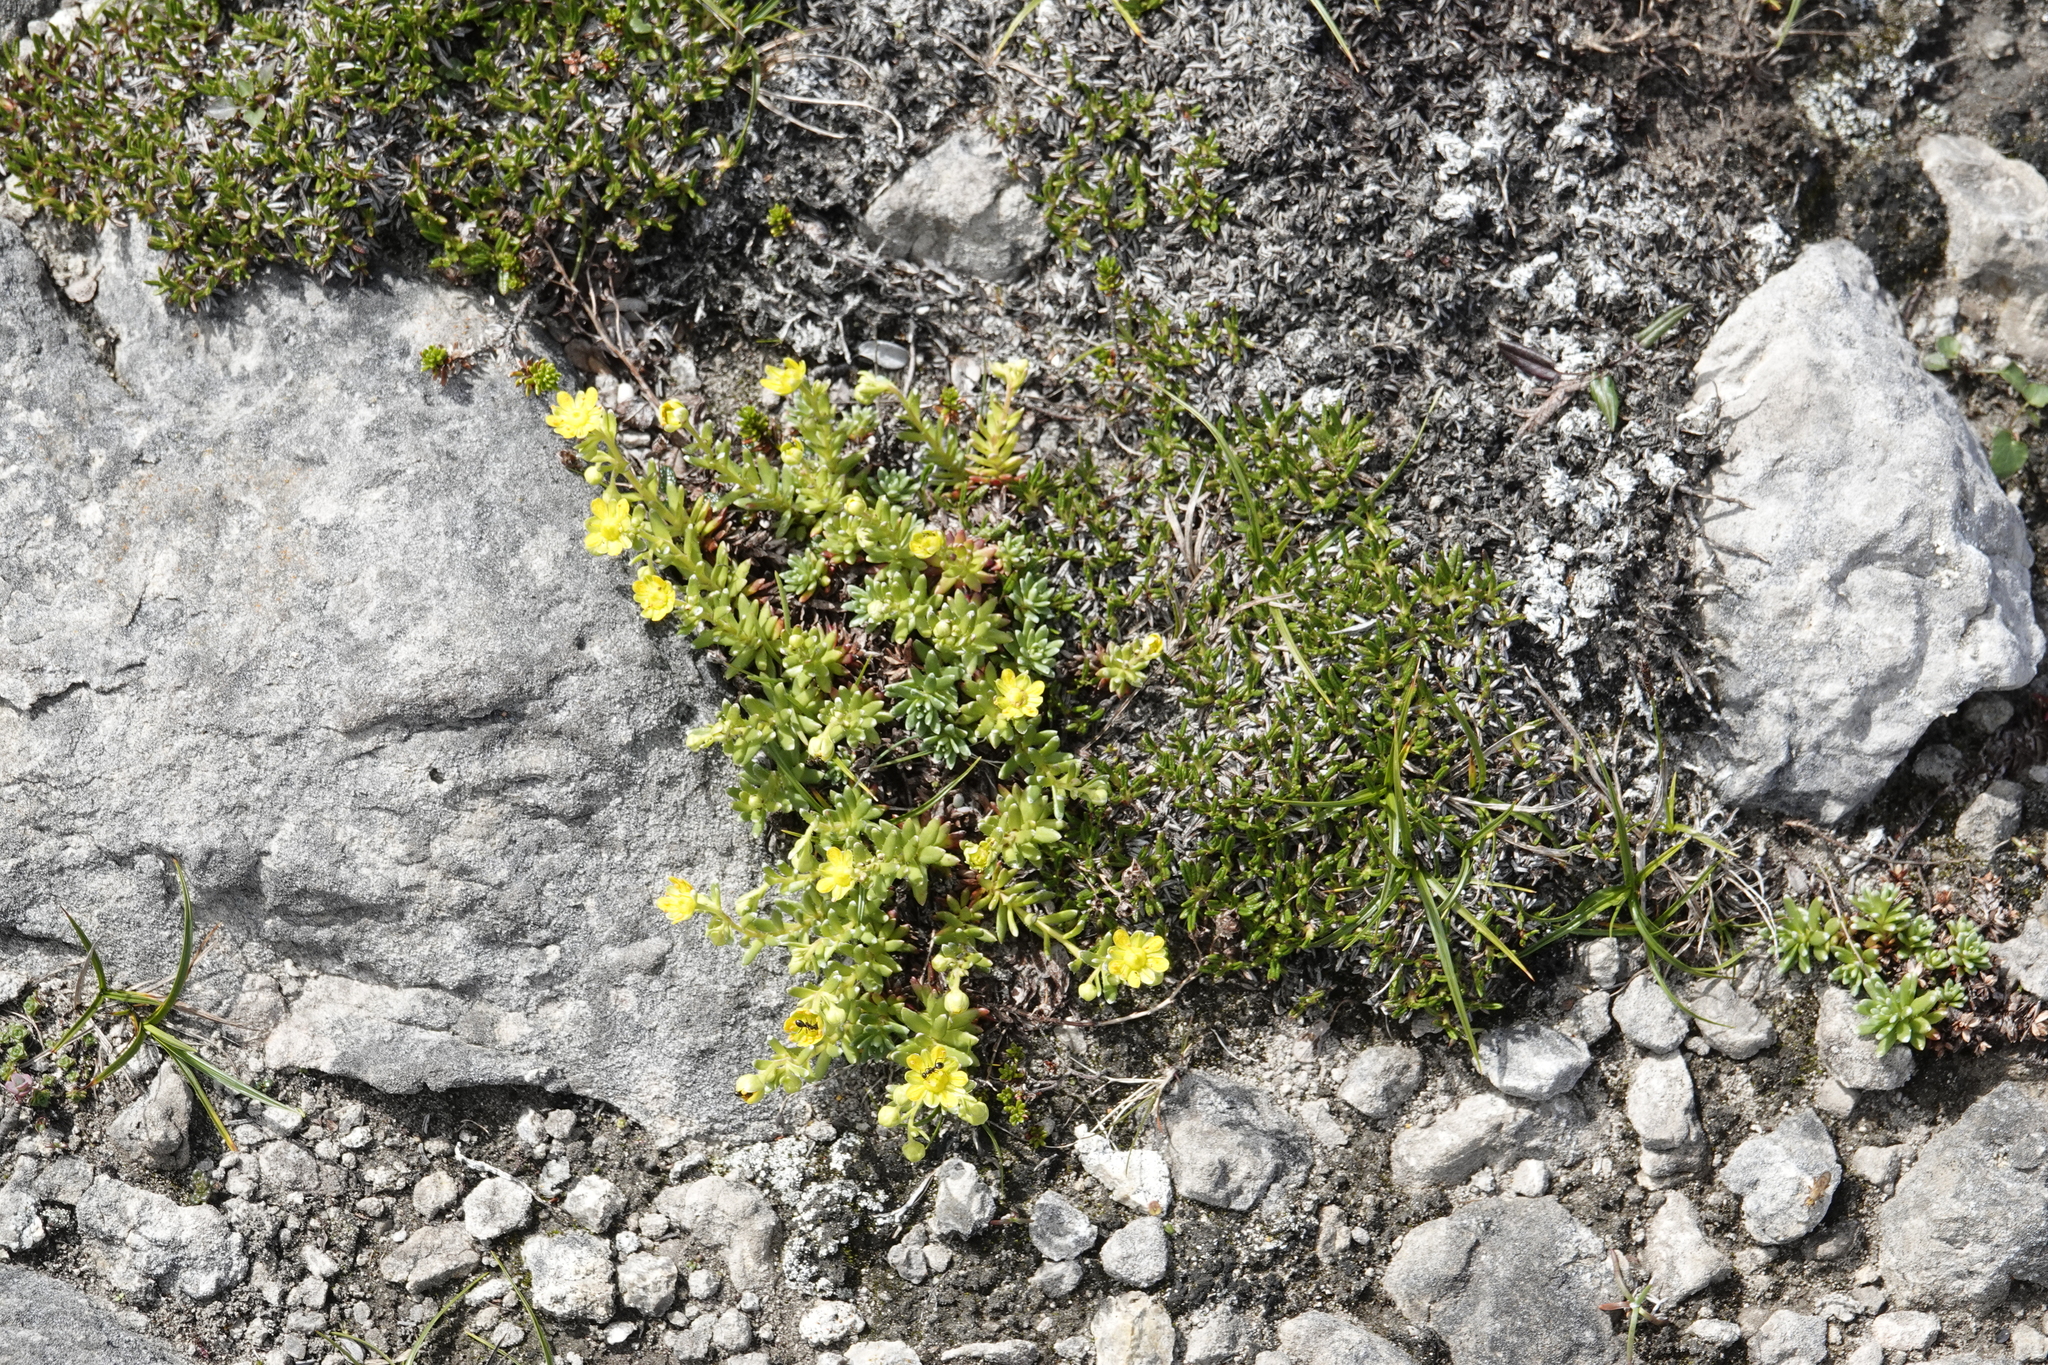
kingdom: Plantae
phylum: Tracheophyta
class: Magnoliopsida
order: Saxifragales
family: Saxifragaceae
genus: Saxifraga
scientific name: Saxifraga aizoides
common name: Yellow mountain saxifrage
